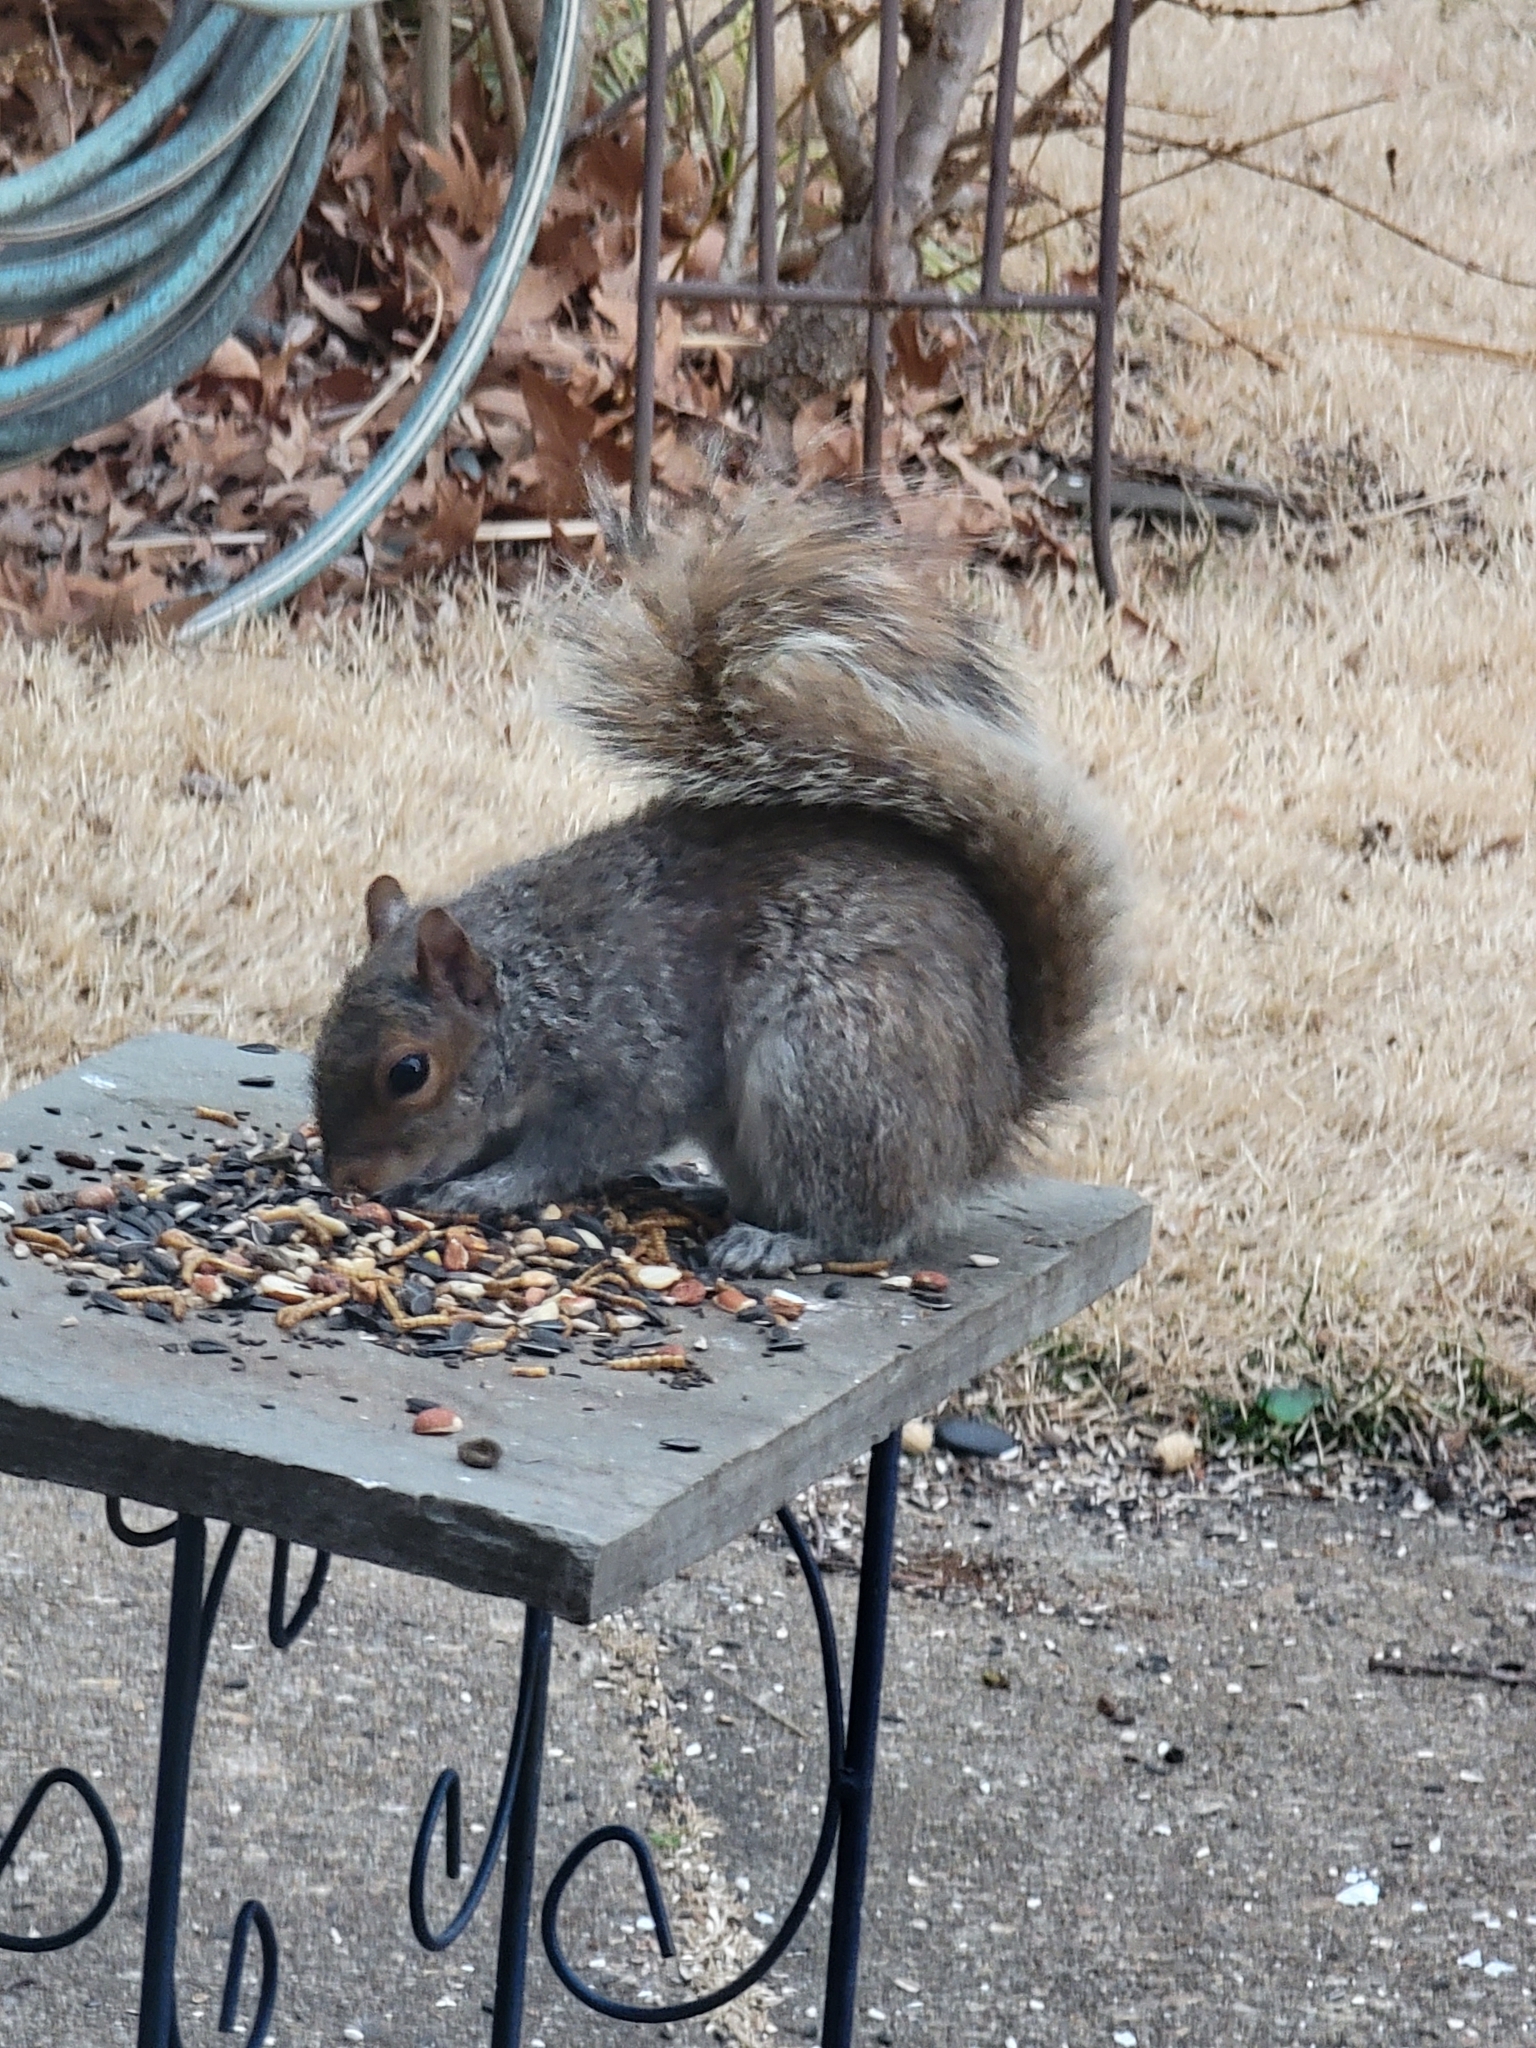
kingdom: Animalia
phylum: Chordata
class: Mammalia
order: Rodentia
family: Sciuridae
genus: Sciurus
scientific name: Sciurus carolinensis
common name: Eastern gray squirrel
